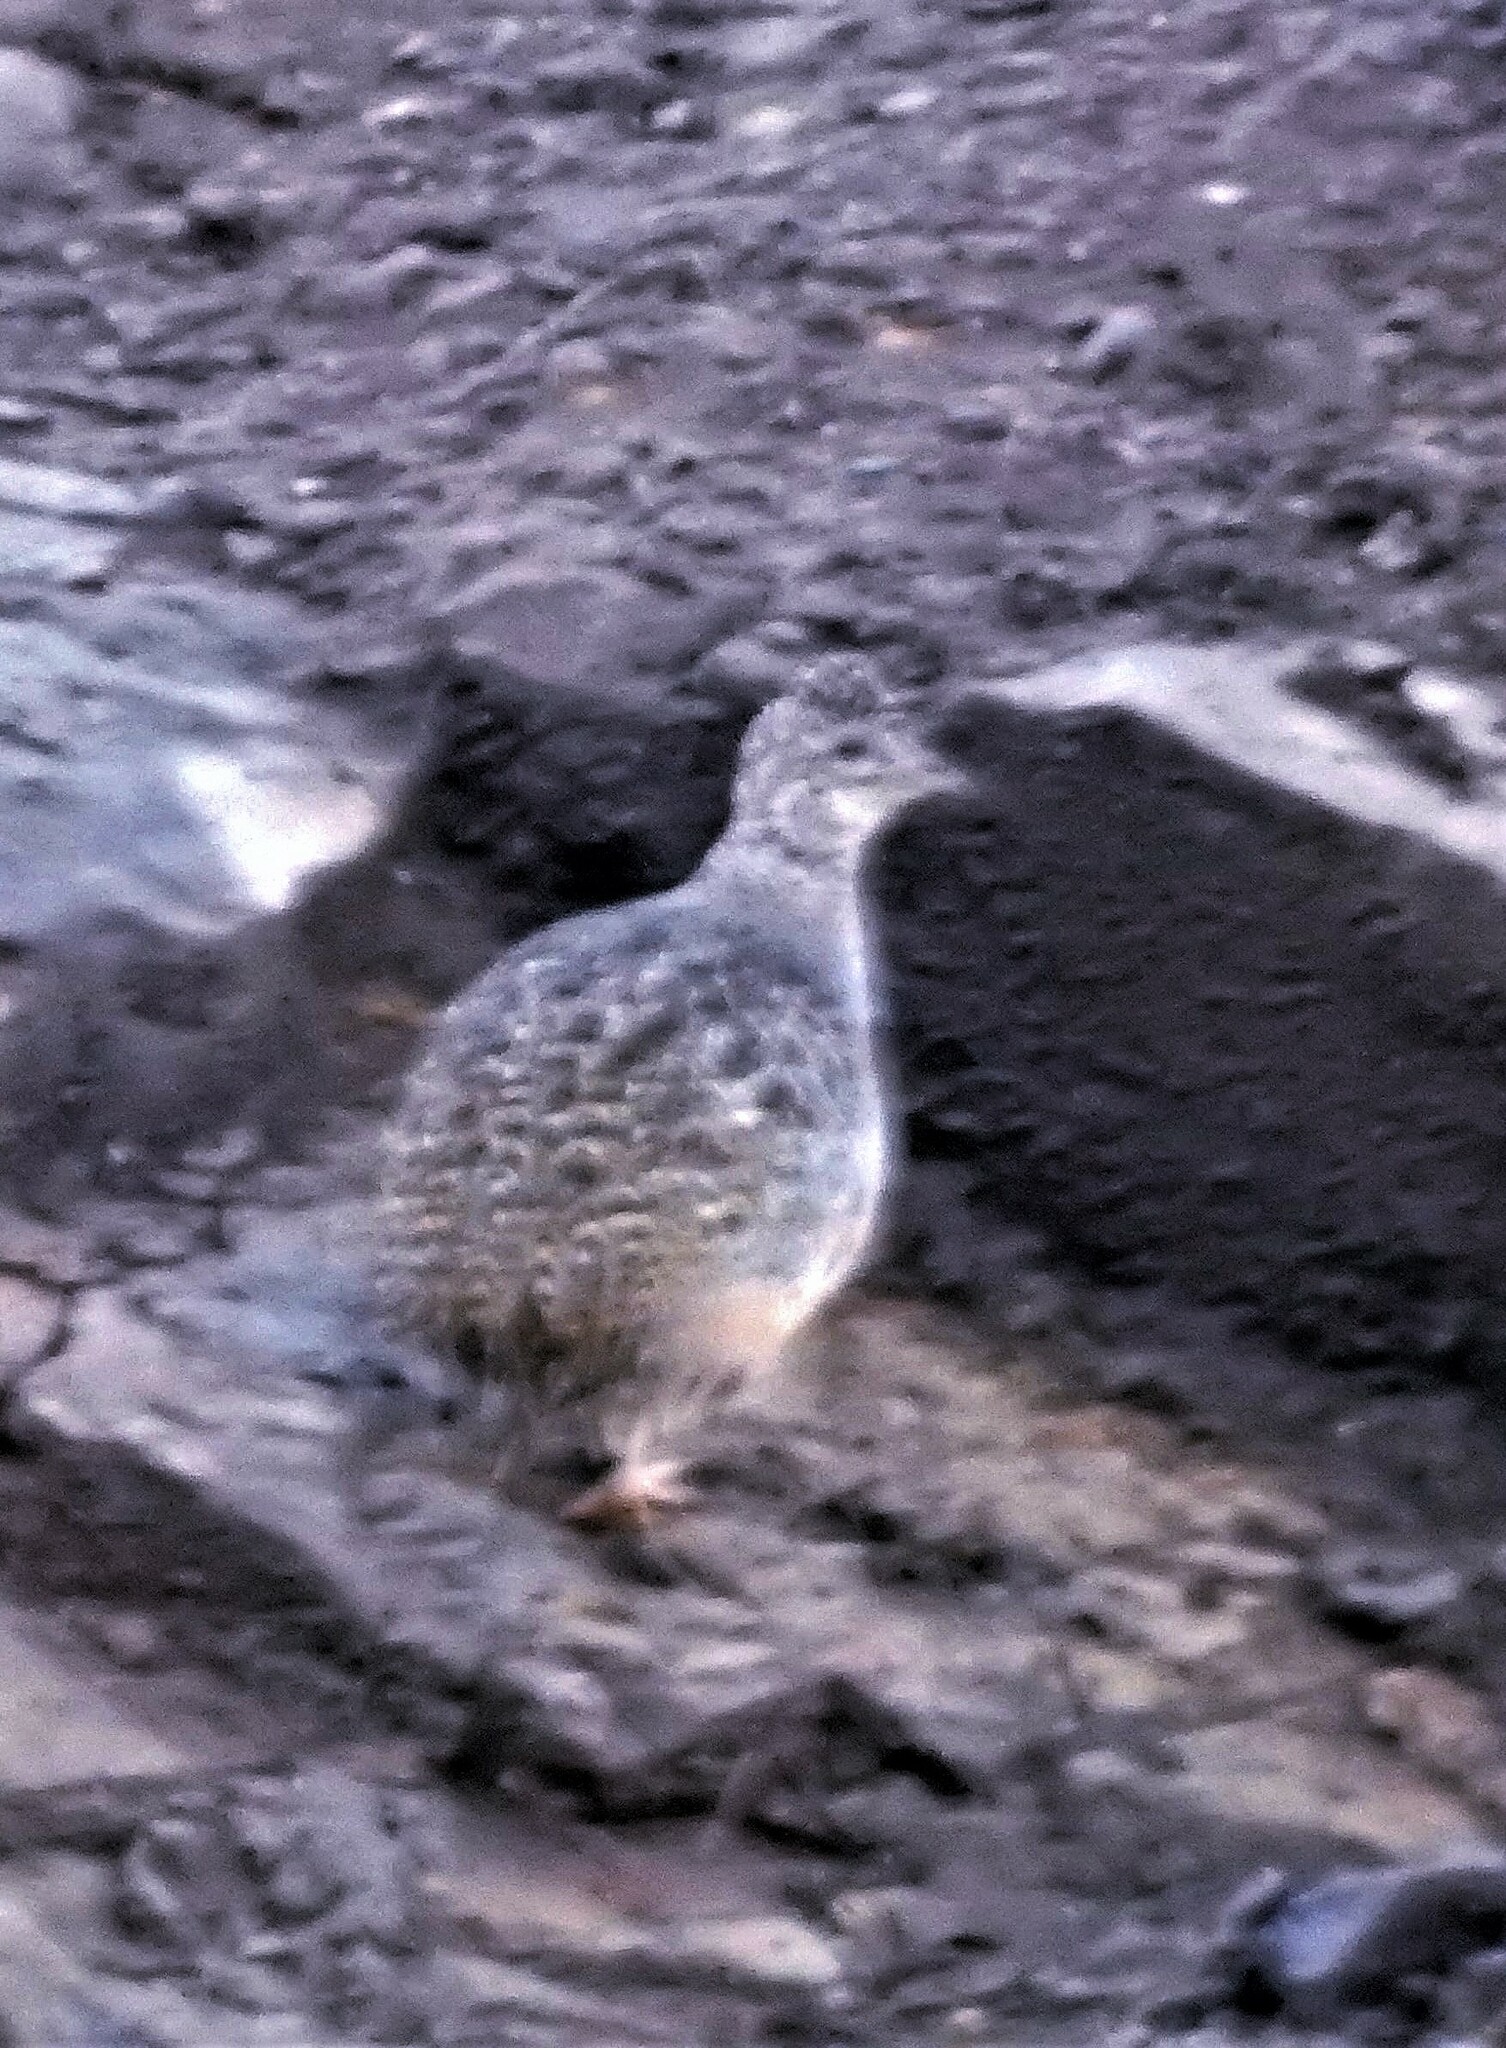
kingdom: Animalia
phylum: Chordata
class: Aves
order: Tinamiformes
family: Tinamidae
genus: Nothoprocta
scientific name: Nothoprocta pentlandii
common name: Andean tinamou
